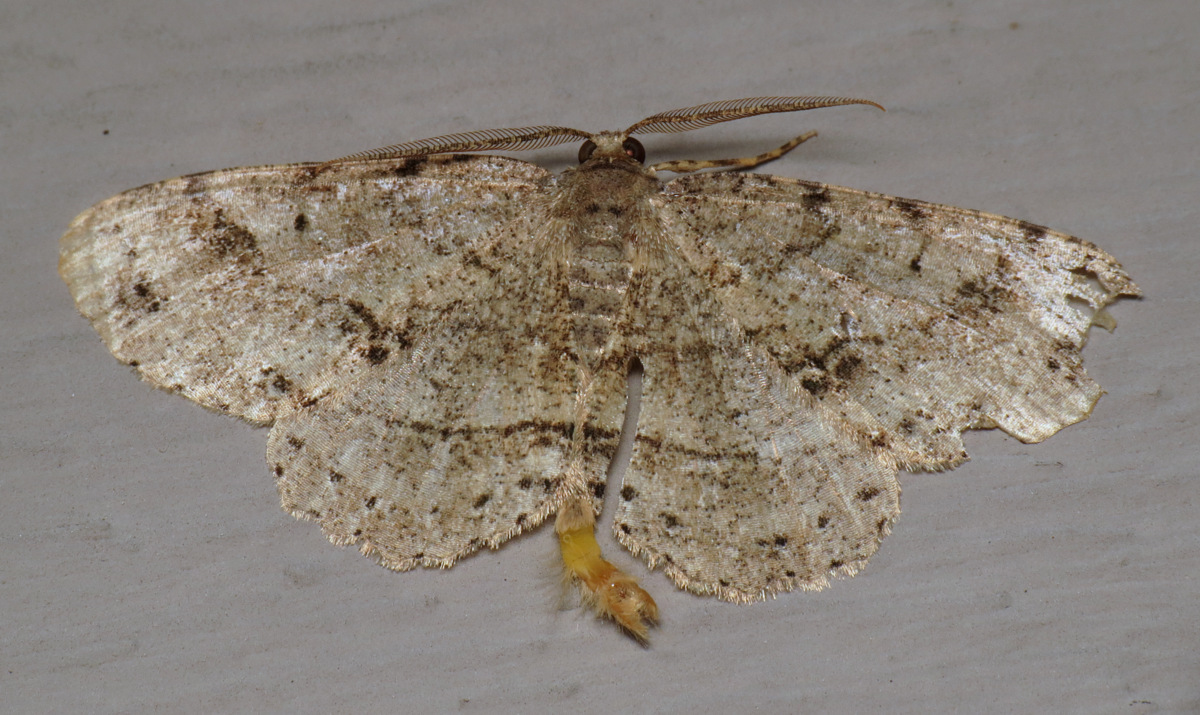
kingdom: Animalia
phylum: Arthropoda
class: Insecta
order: Lepidoptera
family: Geometridae
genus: Melanolophia
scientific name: Melanolophia canadaria
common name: Canadian melanolophia
